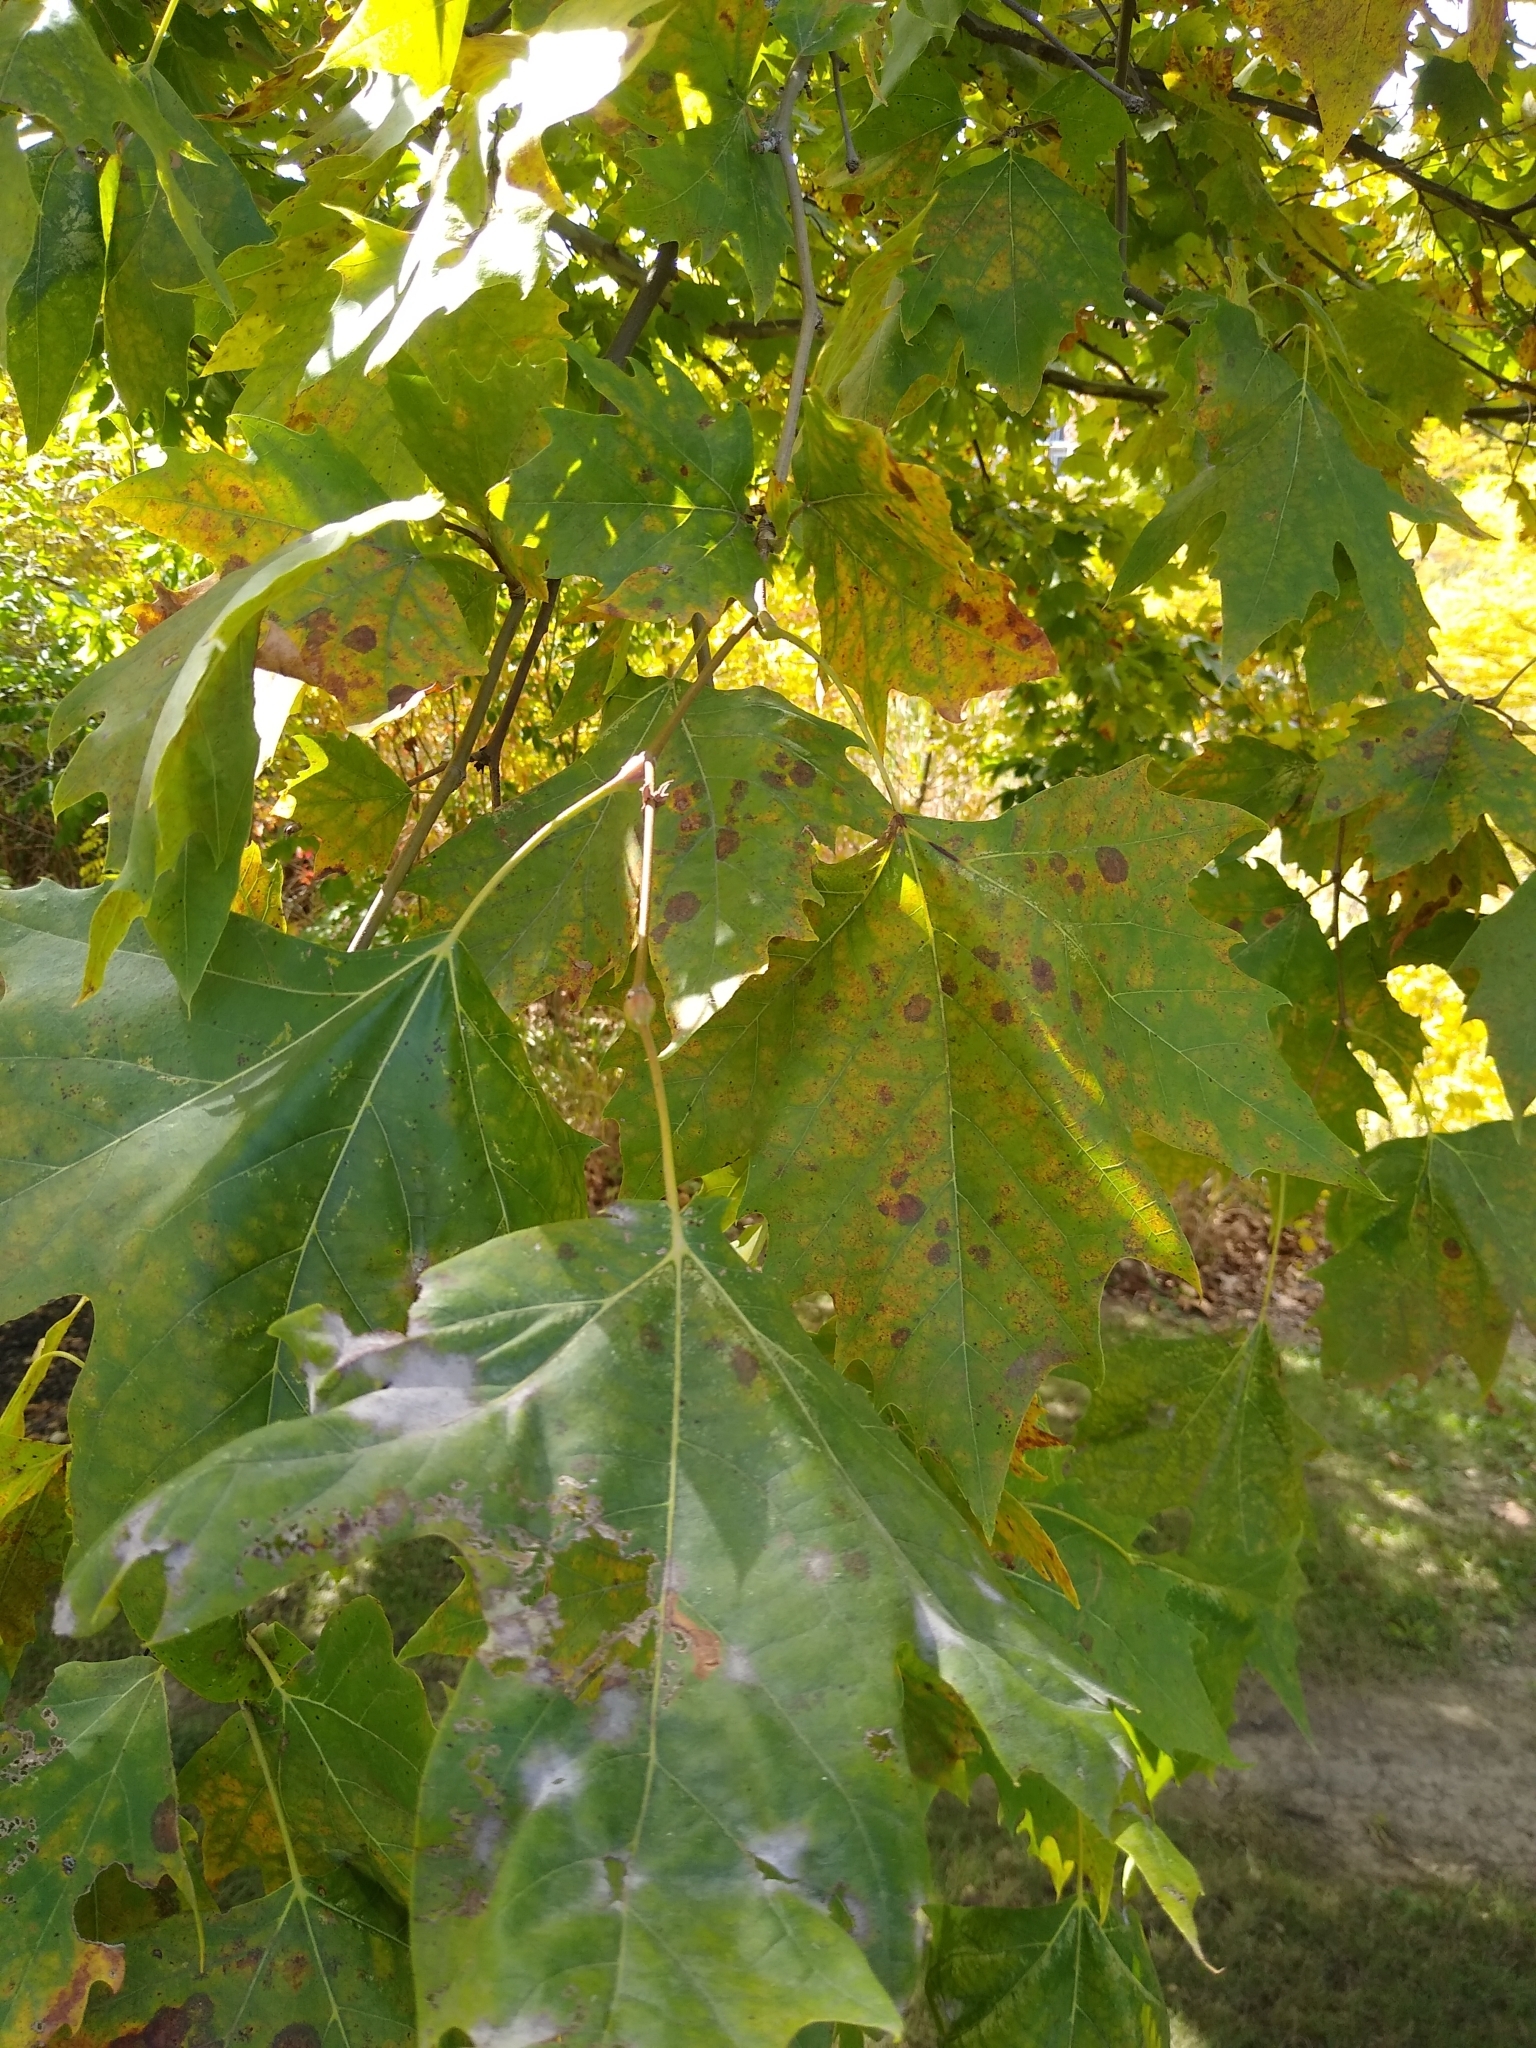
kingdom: Plantae
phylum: Tracheophyta
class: Magnoliopsida
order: Proteales
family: Platanaceae
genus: Platanus
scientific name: Platanus occidentalis
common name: American sycamore
